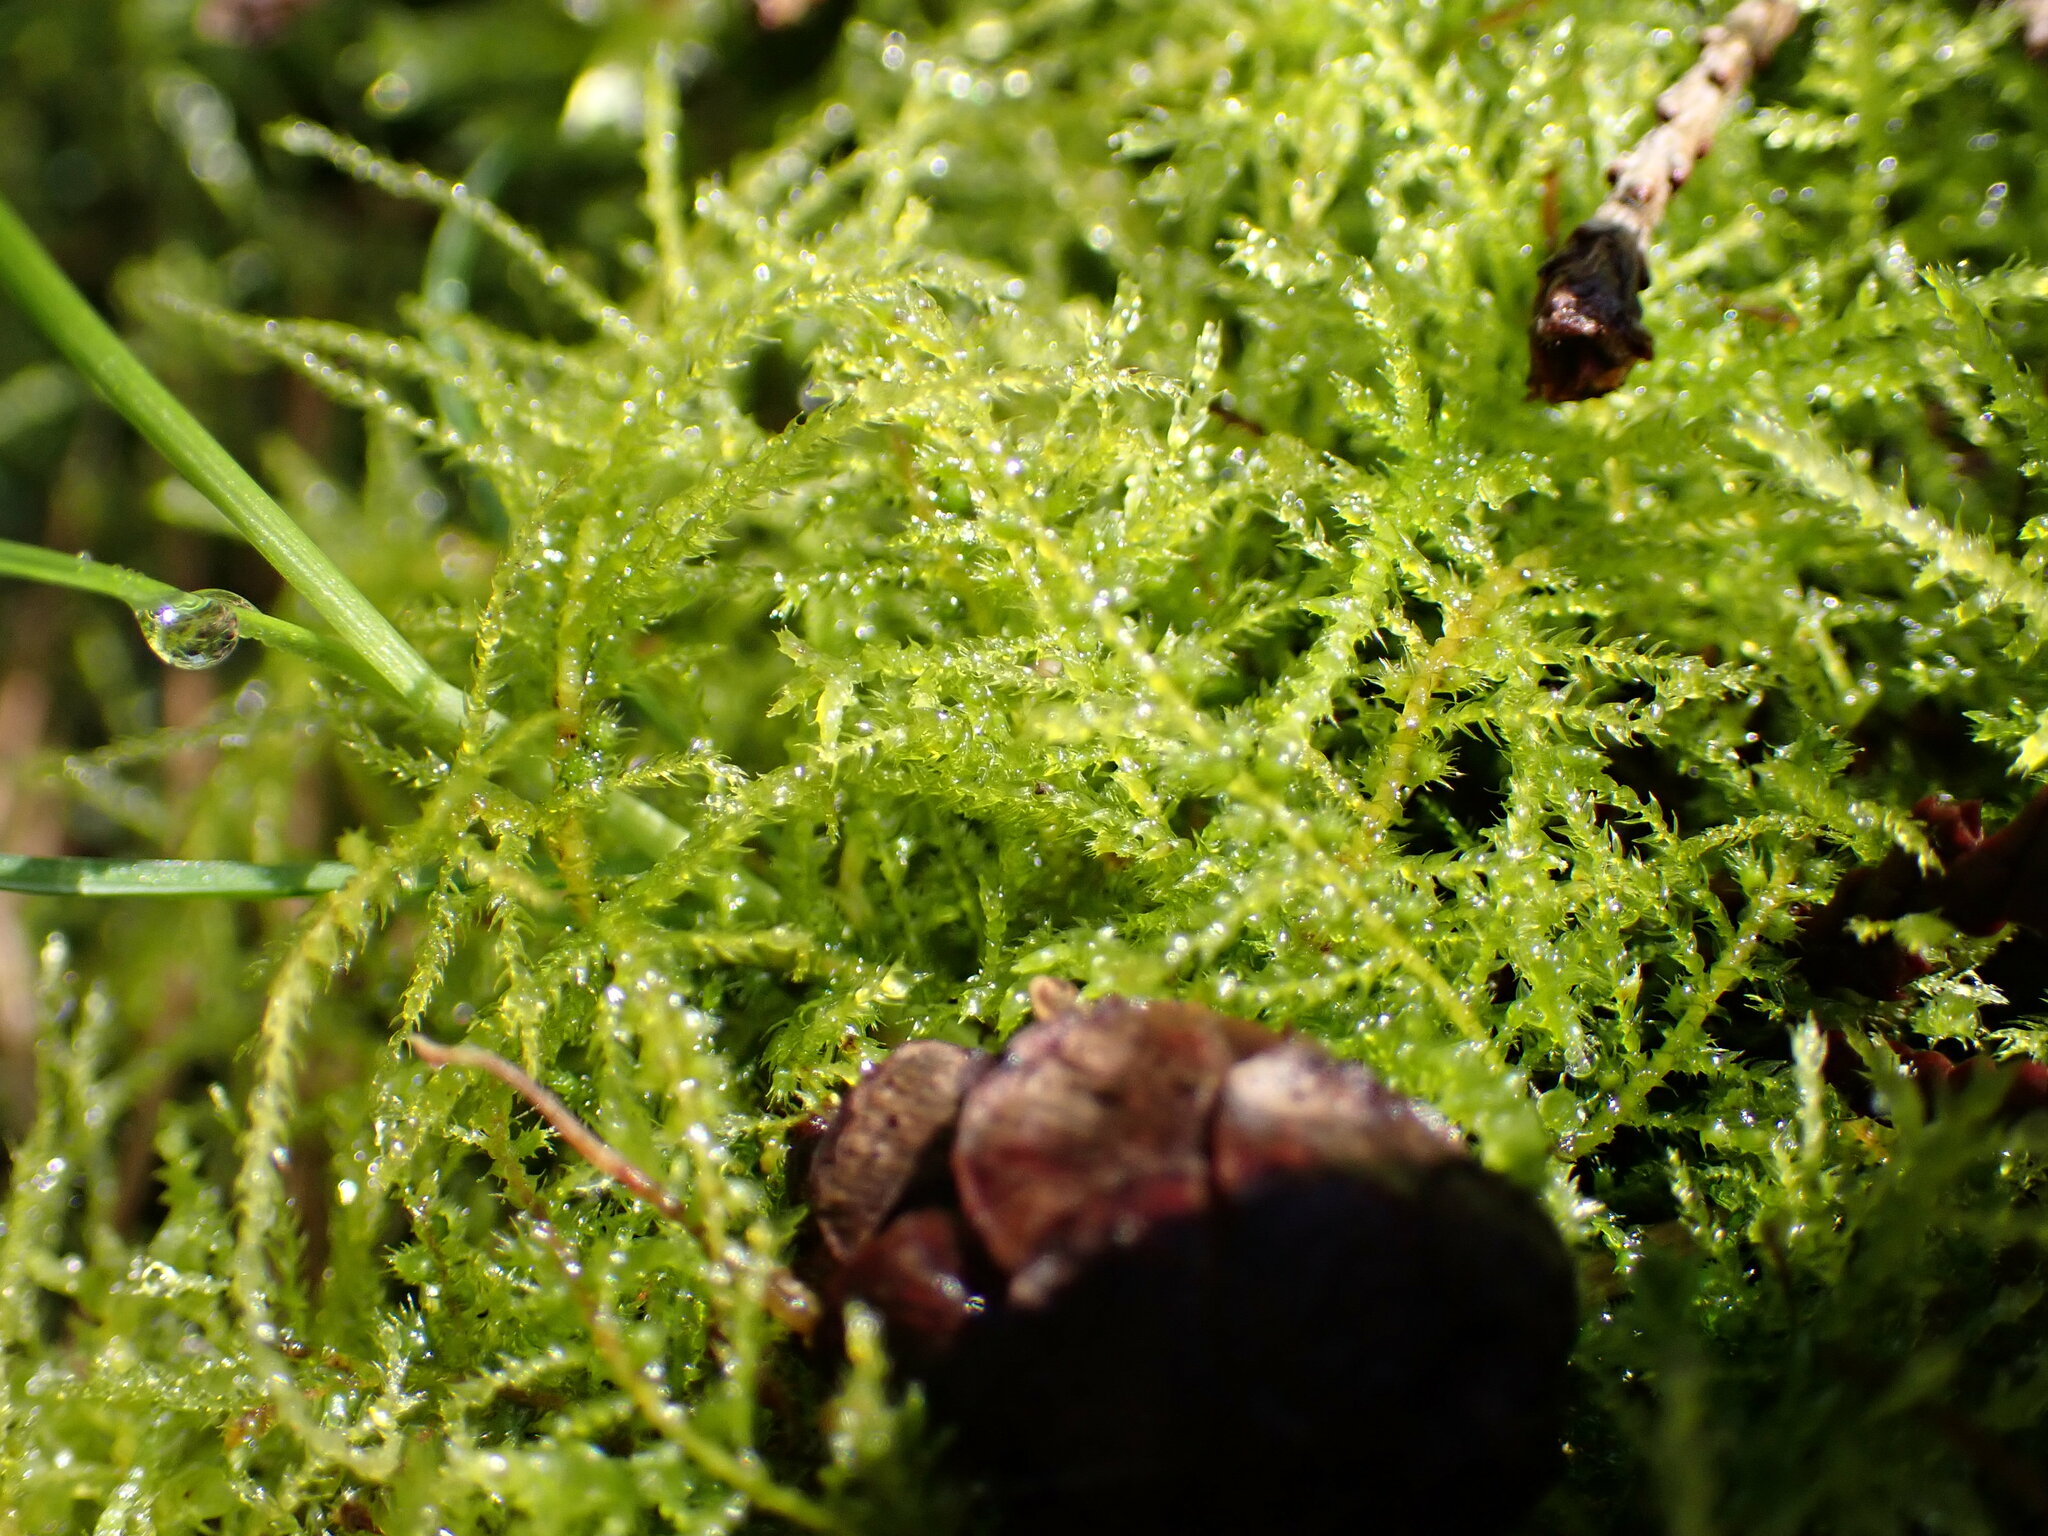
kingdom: Plantae
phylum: Bryophyta
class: Bryopsida
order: Hypnales
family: Brachytheciaceae
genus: Kindbergia
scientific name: Kindbergia praelonga
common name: Slender beaked moss
